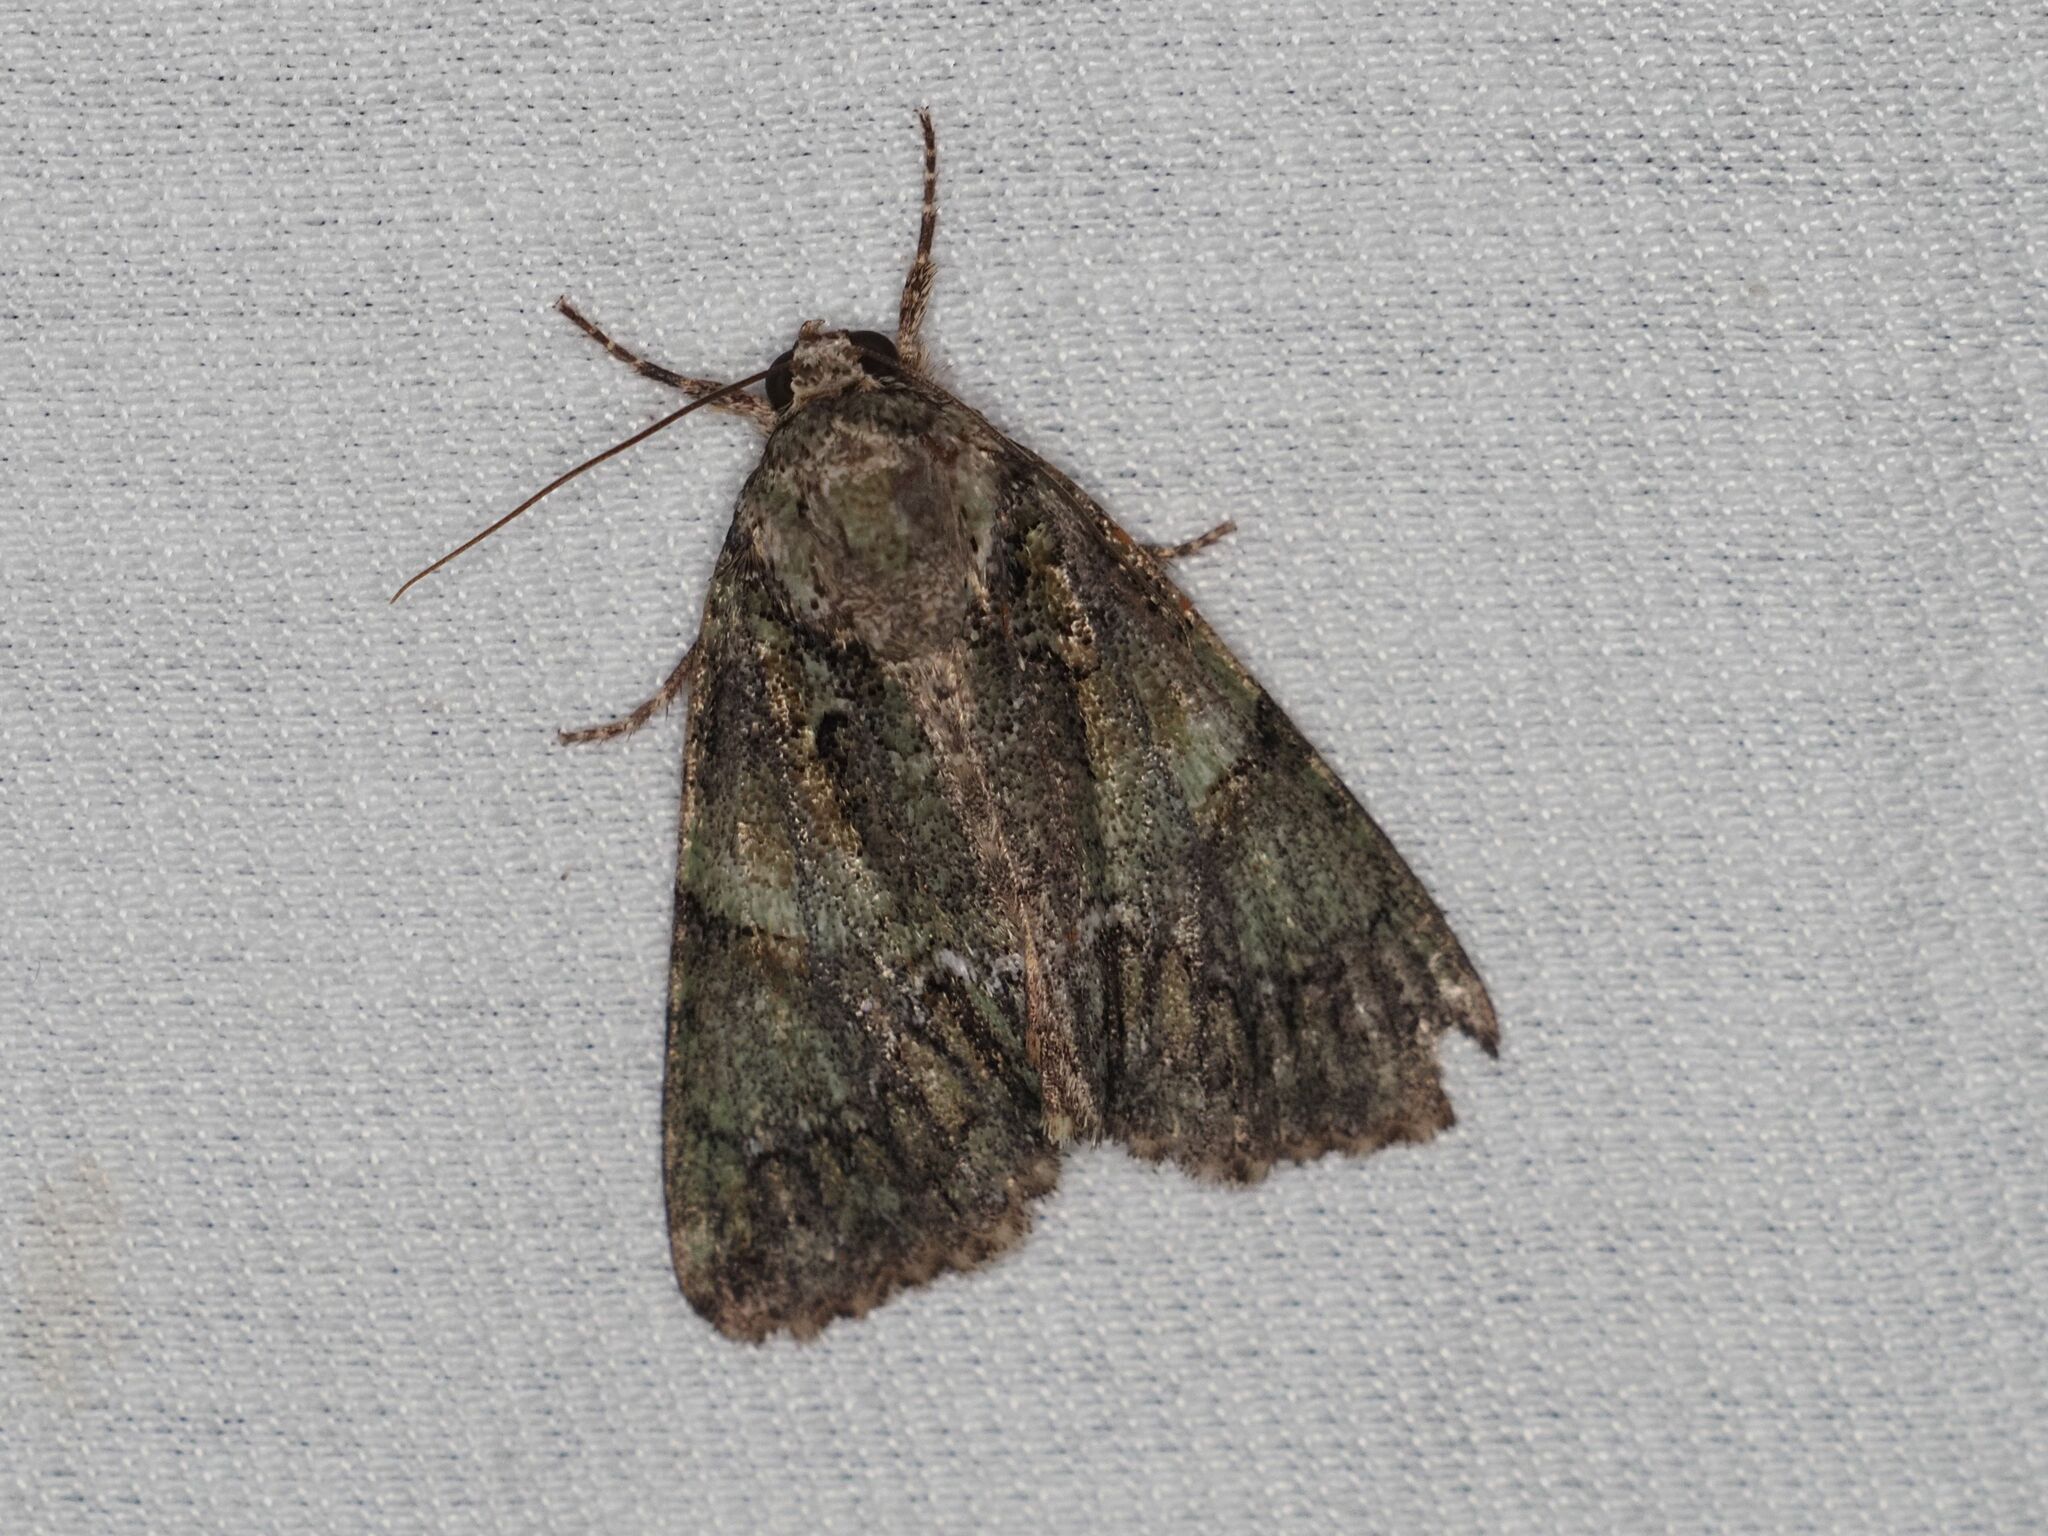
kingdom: Animalia
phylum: Arthropoda
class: Insecta
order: Lepidoptera
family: Noctuidae
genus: Polyphaenis
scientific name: Polyphaenis sericata
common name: Guernsey underwing
